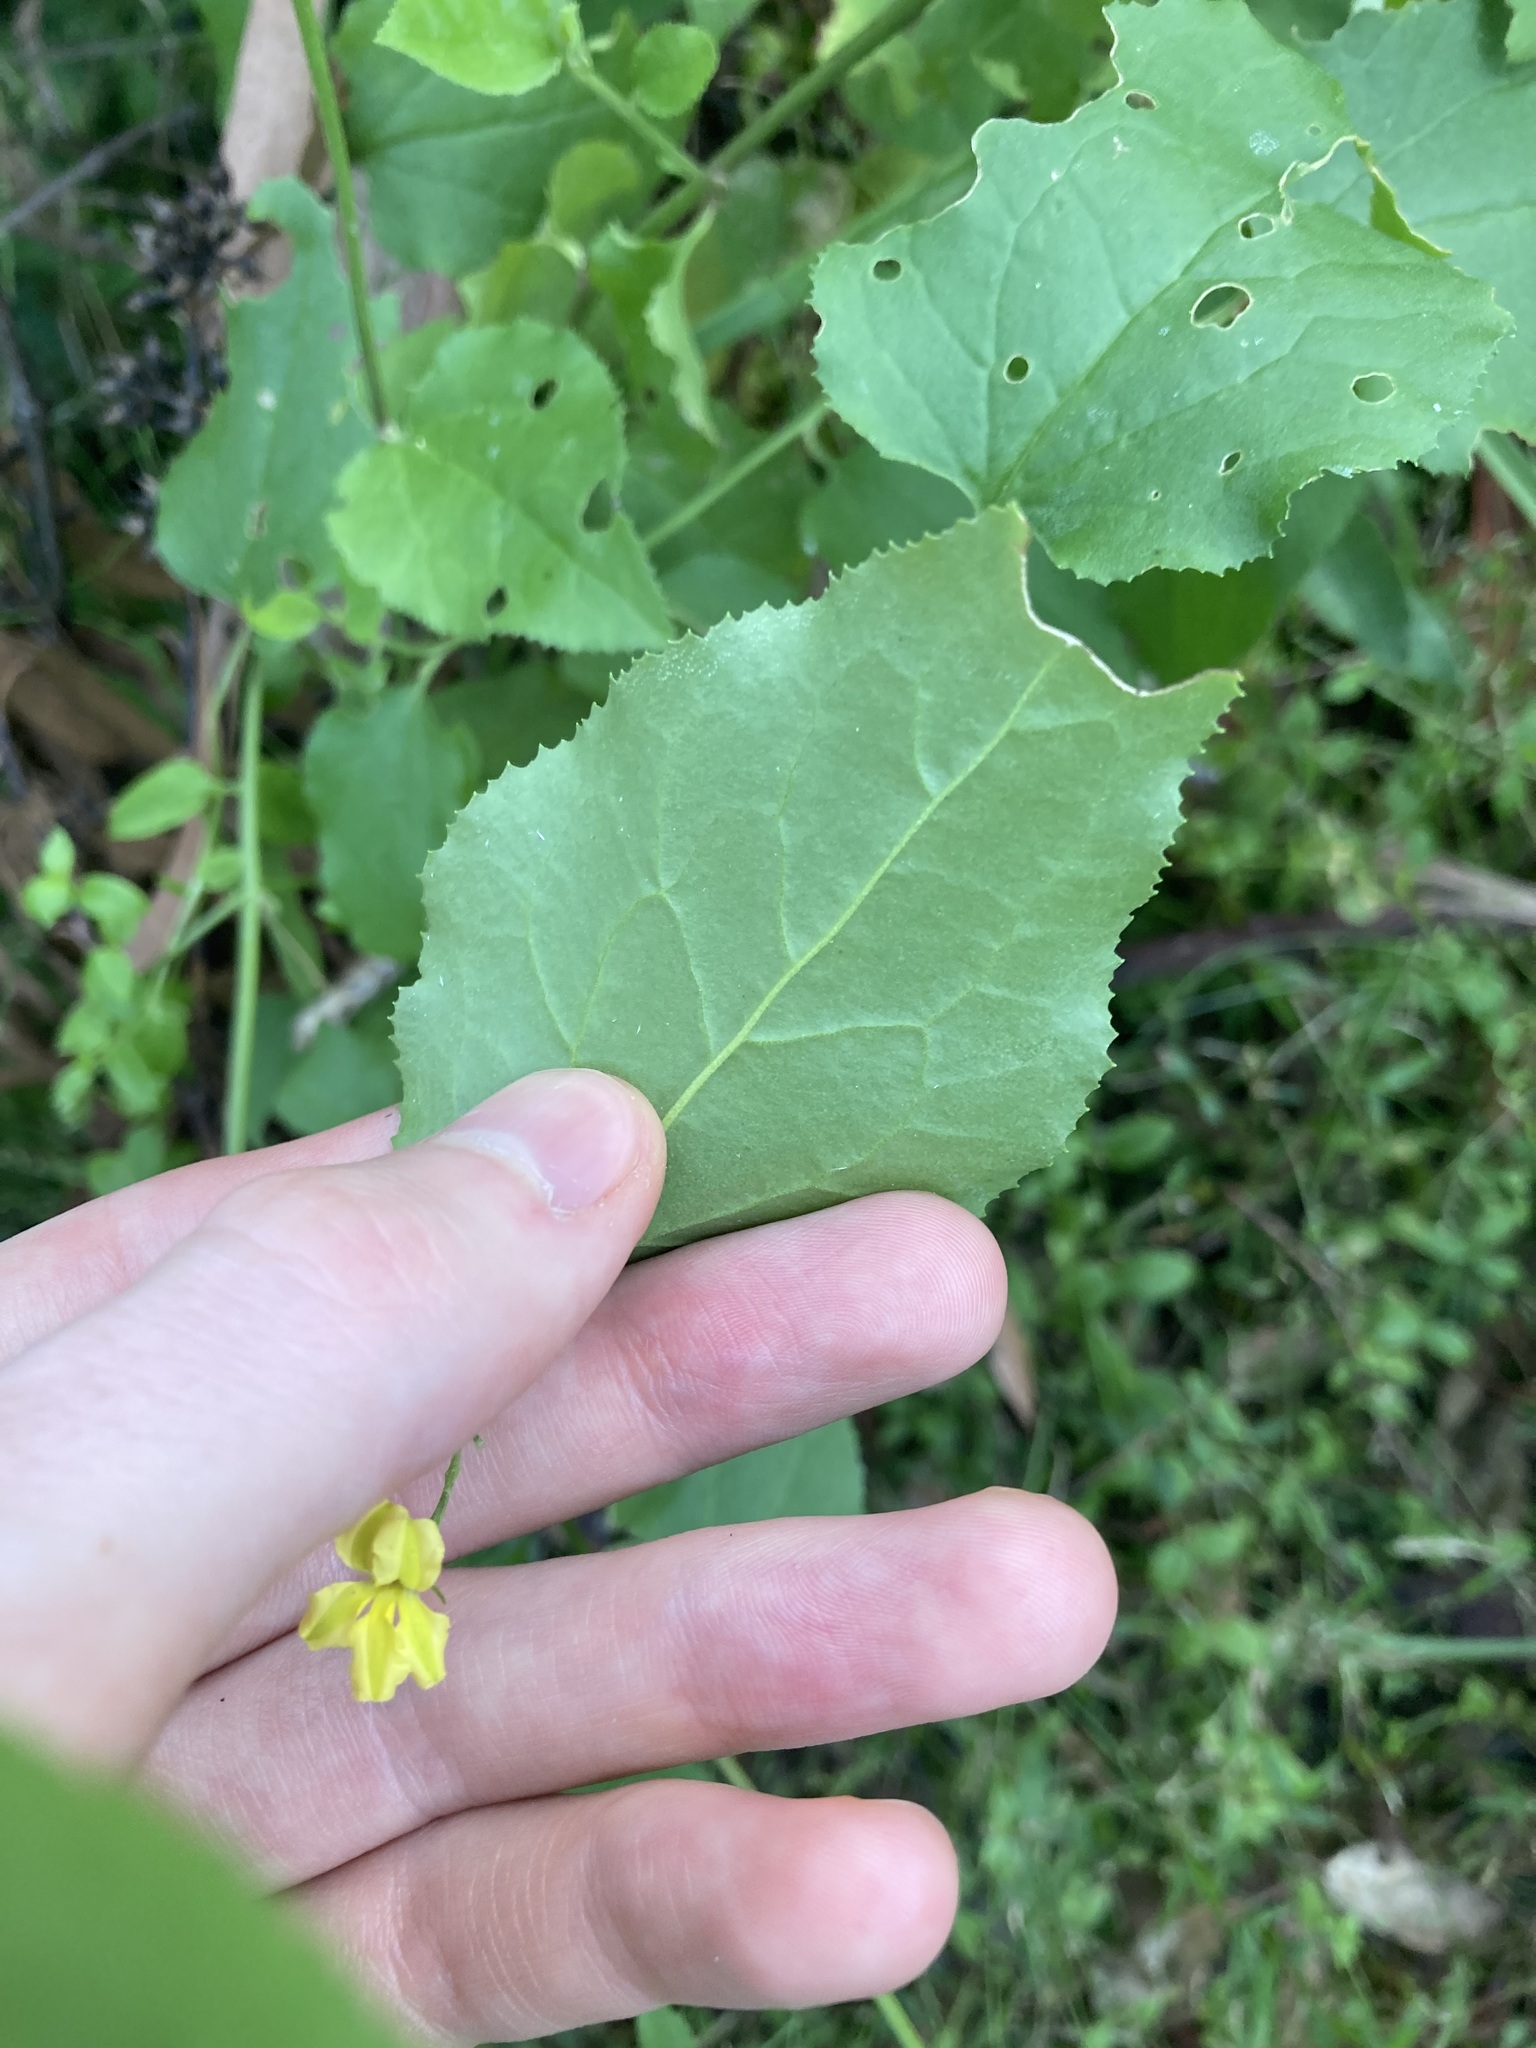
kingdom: Plantae
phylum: Tracheophyta
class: Magnoliopsida
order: Asterales
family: Goodeniaceae
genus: Goodenia
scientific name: Goodenia ovata
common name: Hop goodenia
